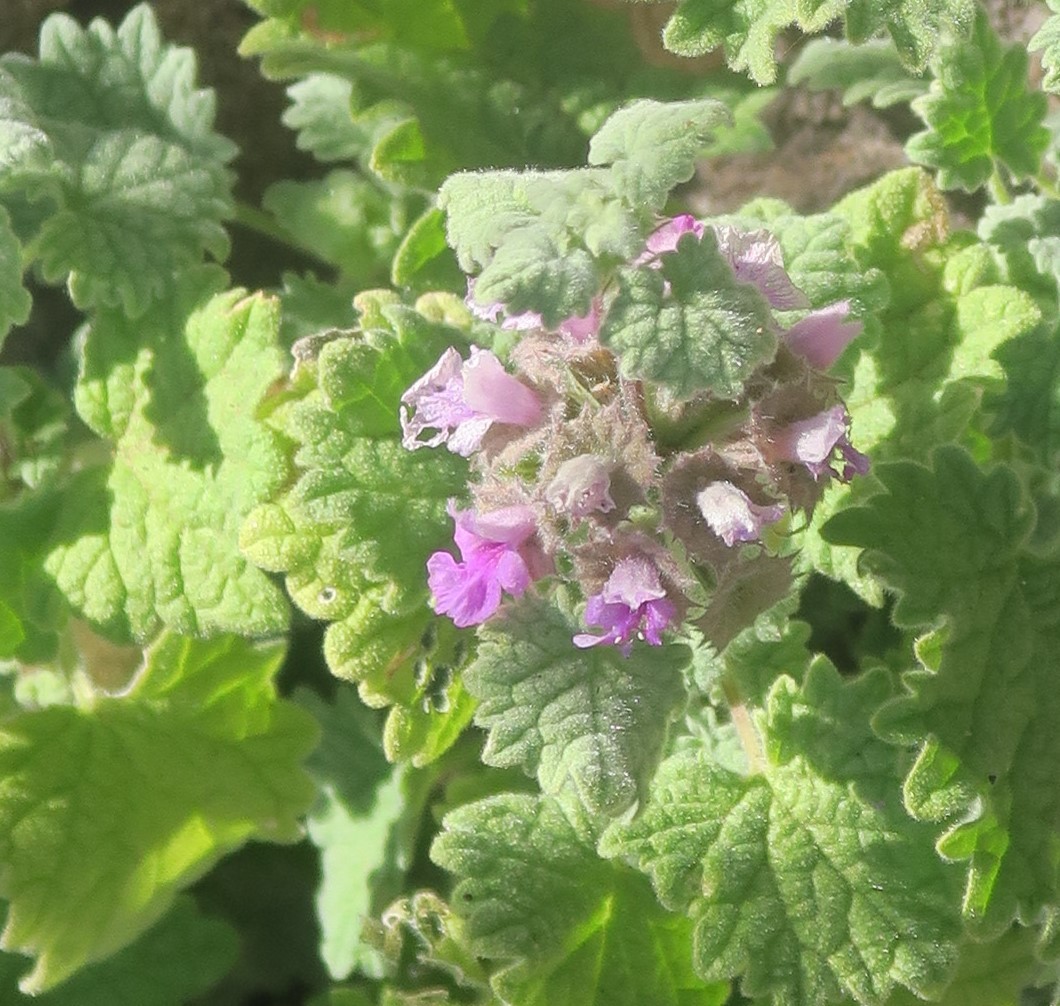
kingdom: Plantae
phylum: Tracheophyta
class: Magnoliopsida
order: Lamiales
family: Lamiaceae
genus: Pseudodictamnus
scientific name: Pseudodictamnus africanus
